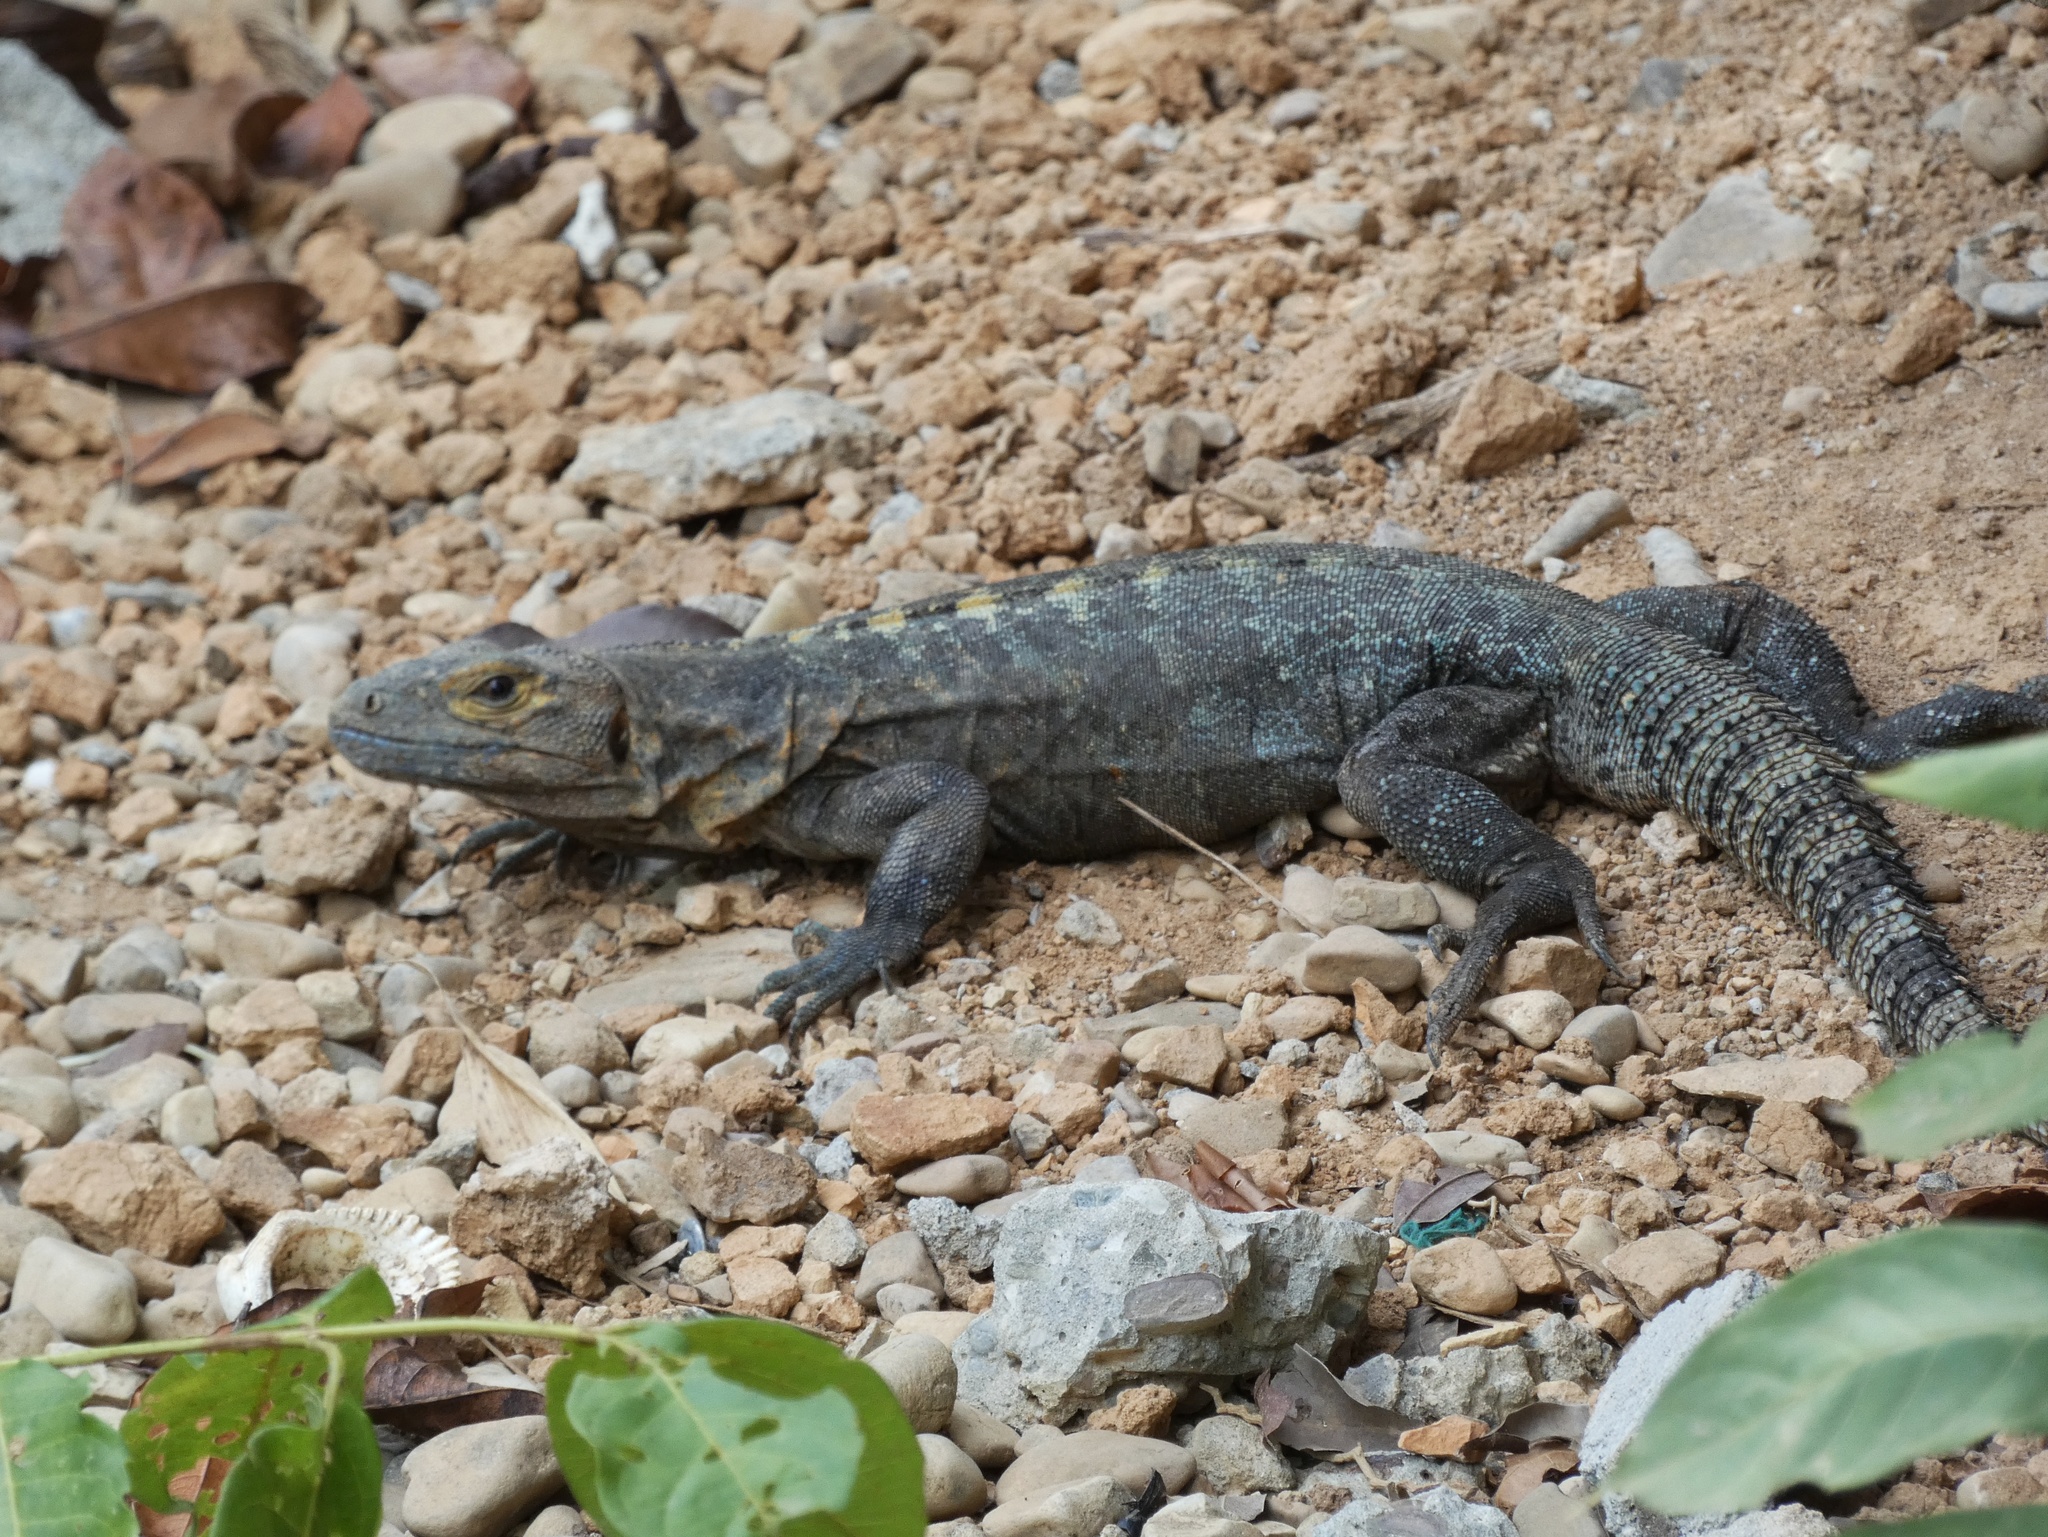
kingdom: Animalia
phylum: Chordata
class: Squamata
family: Iguanidae
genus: Ctenosaura
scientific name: Ctenosaura similis
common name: Black spiny-tailed iguana
